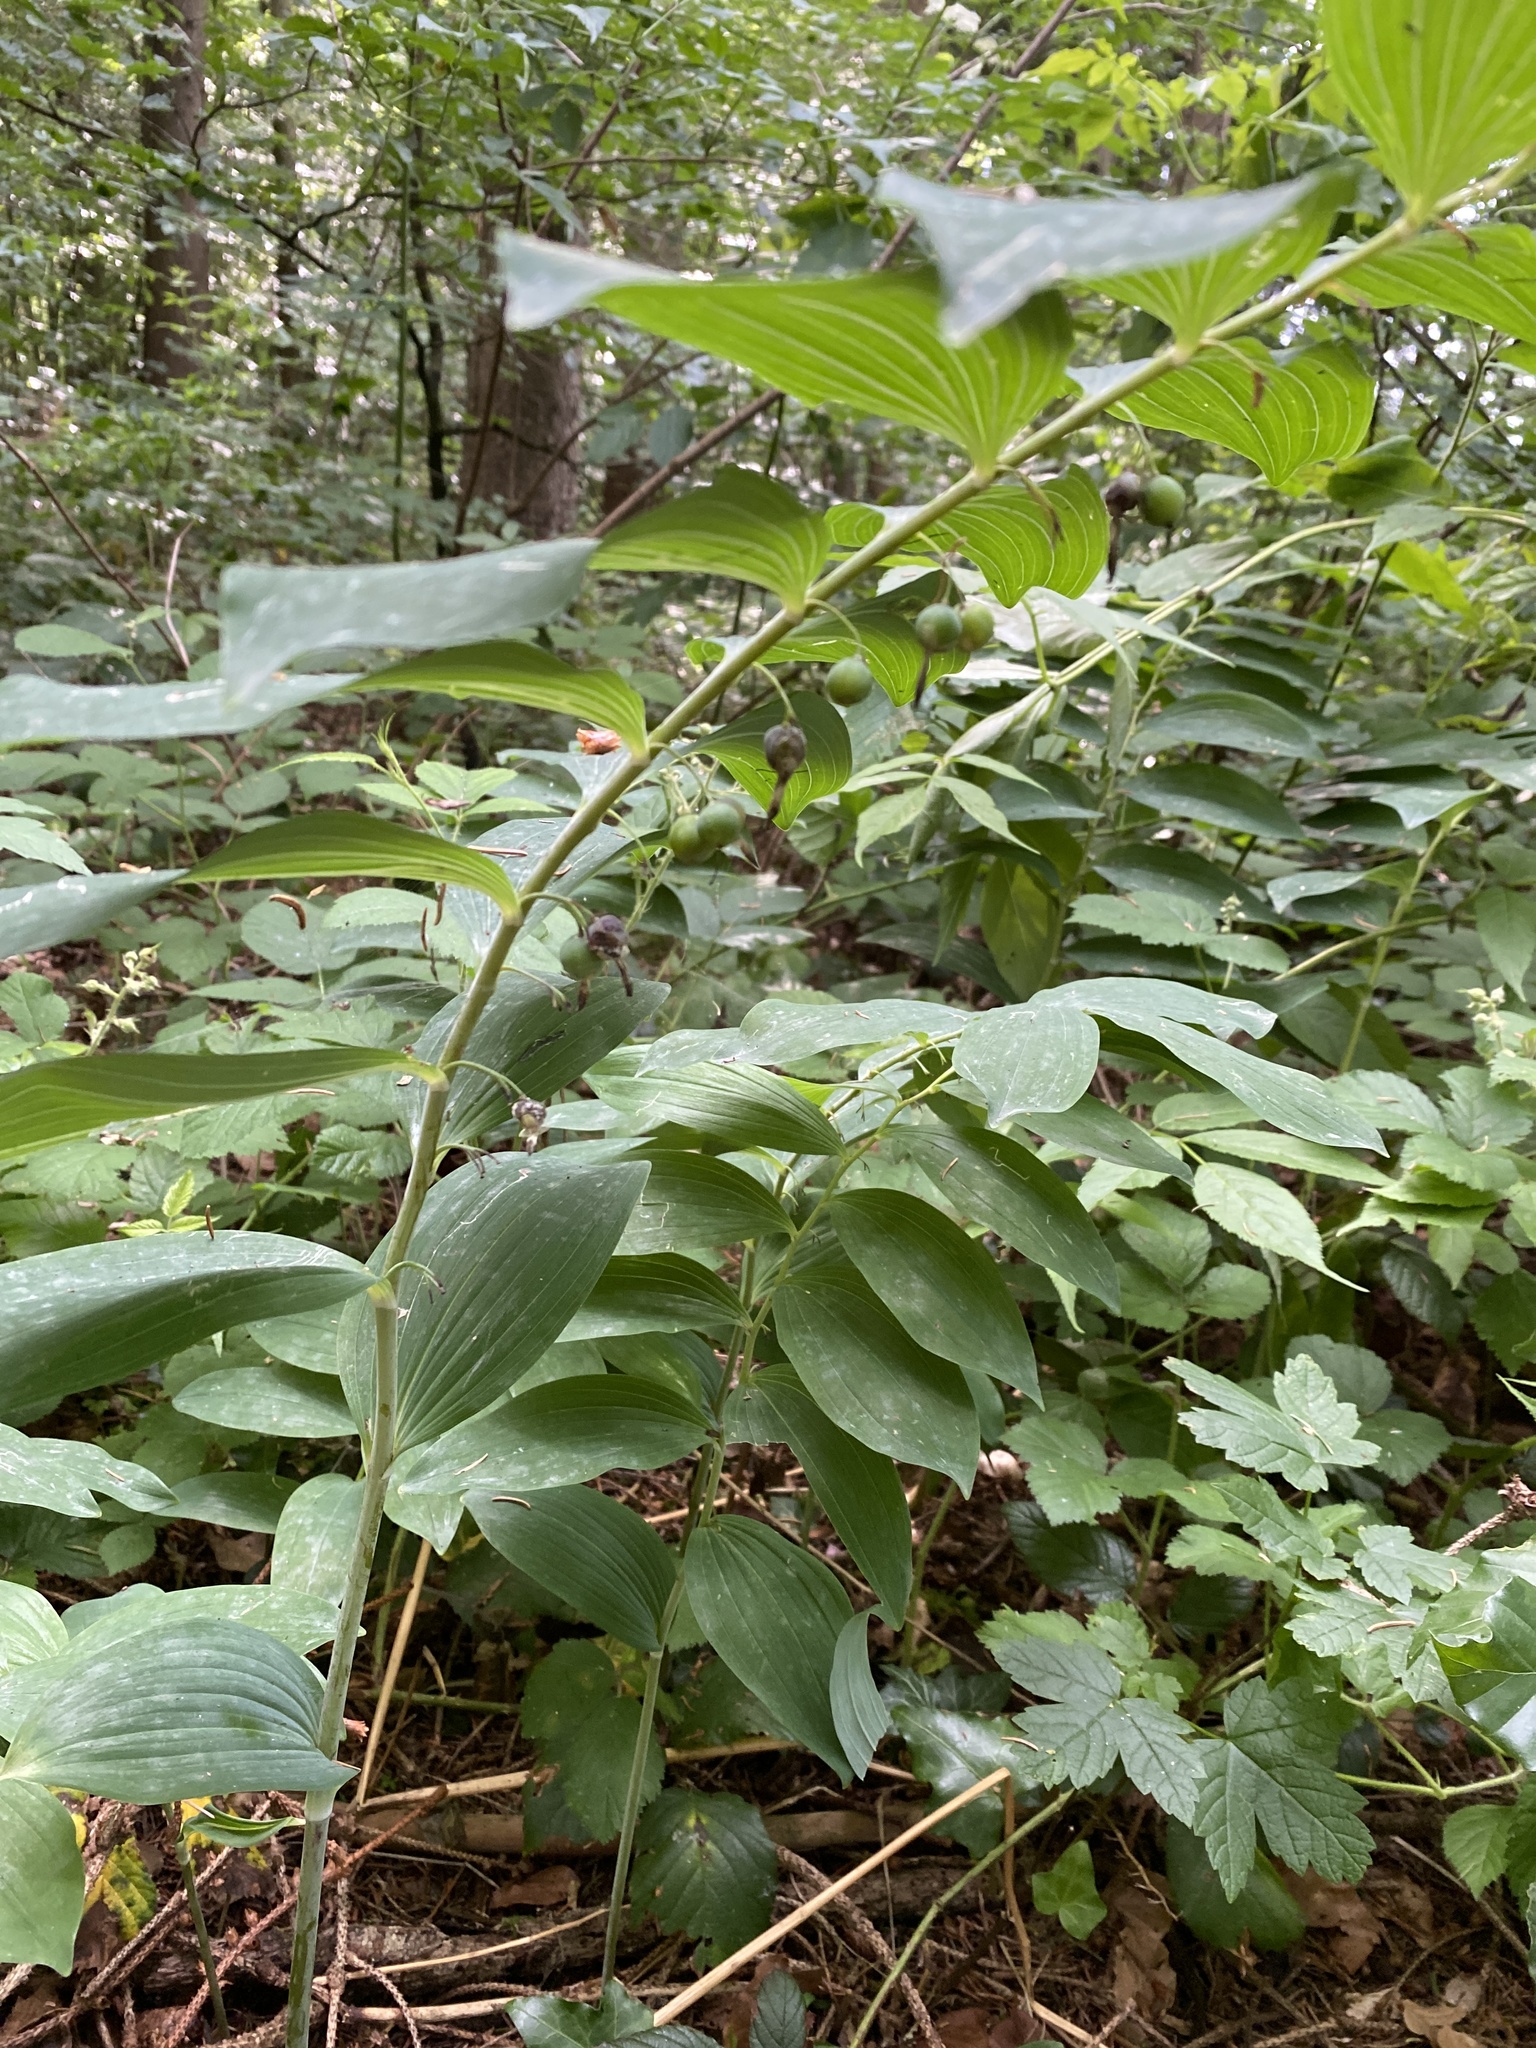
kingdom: Plantae
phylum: Tracheophyta
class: Liliopsida
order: Asparagales
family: Asparagaceae
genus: Polygonatum
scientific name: Polygonatum multiflorum
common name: Solomon's-seal
